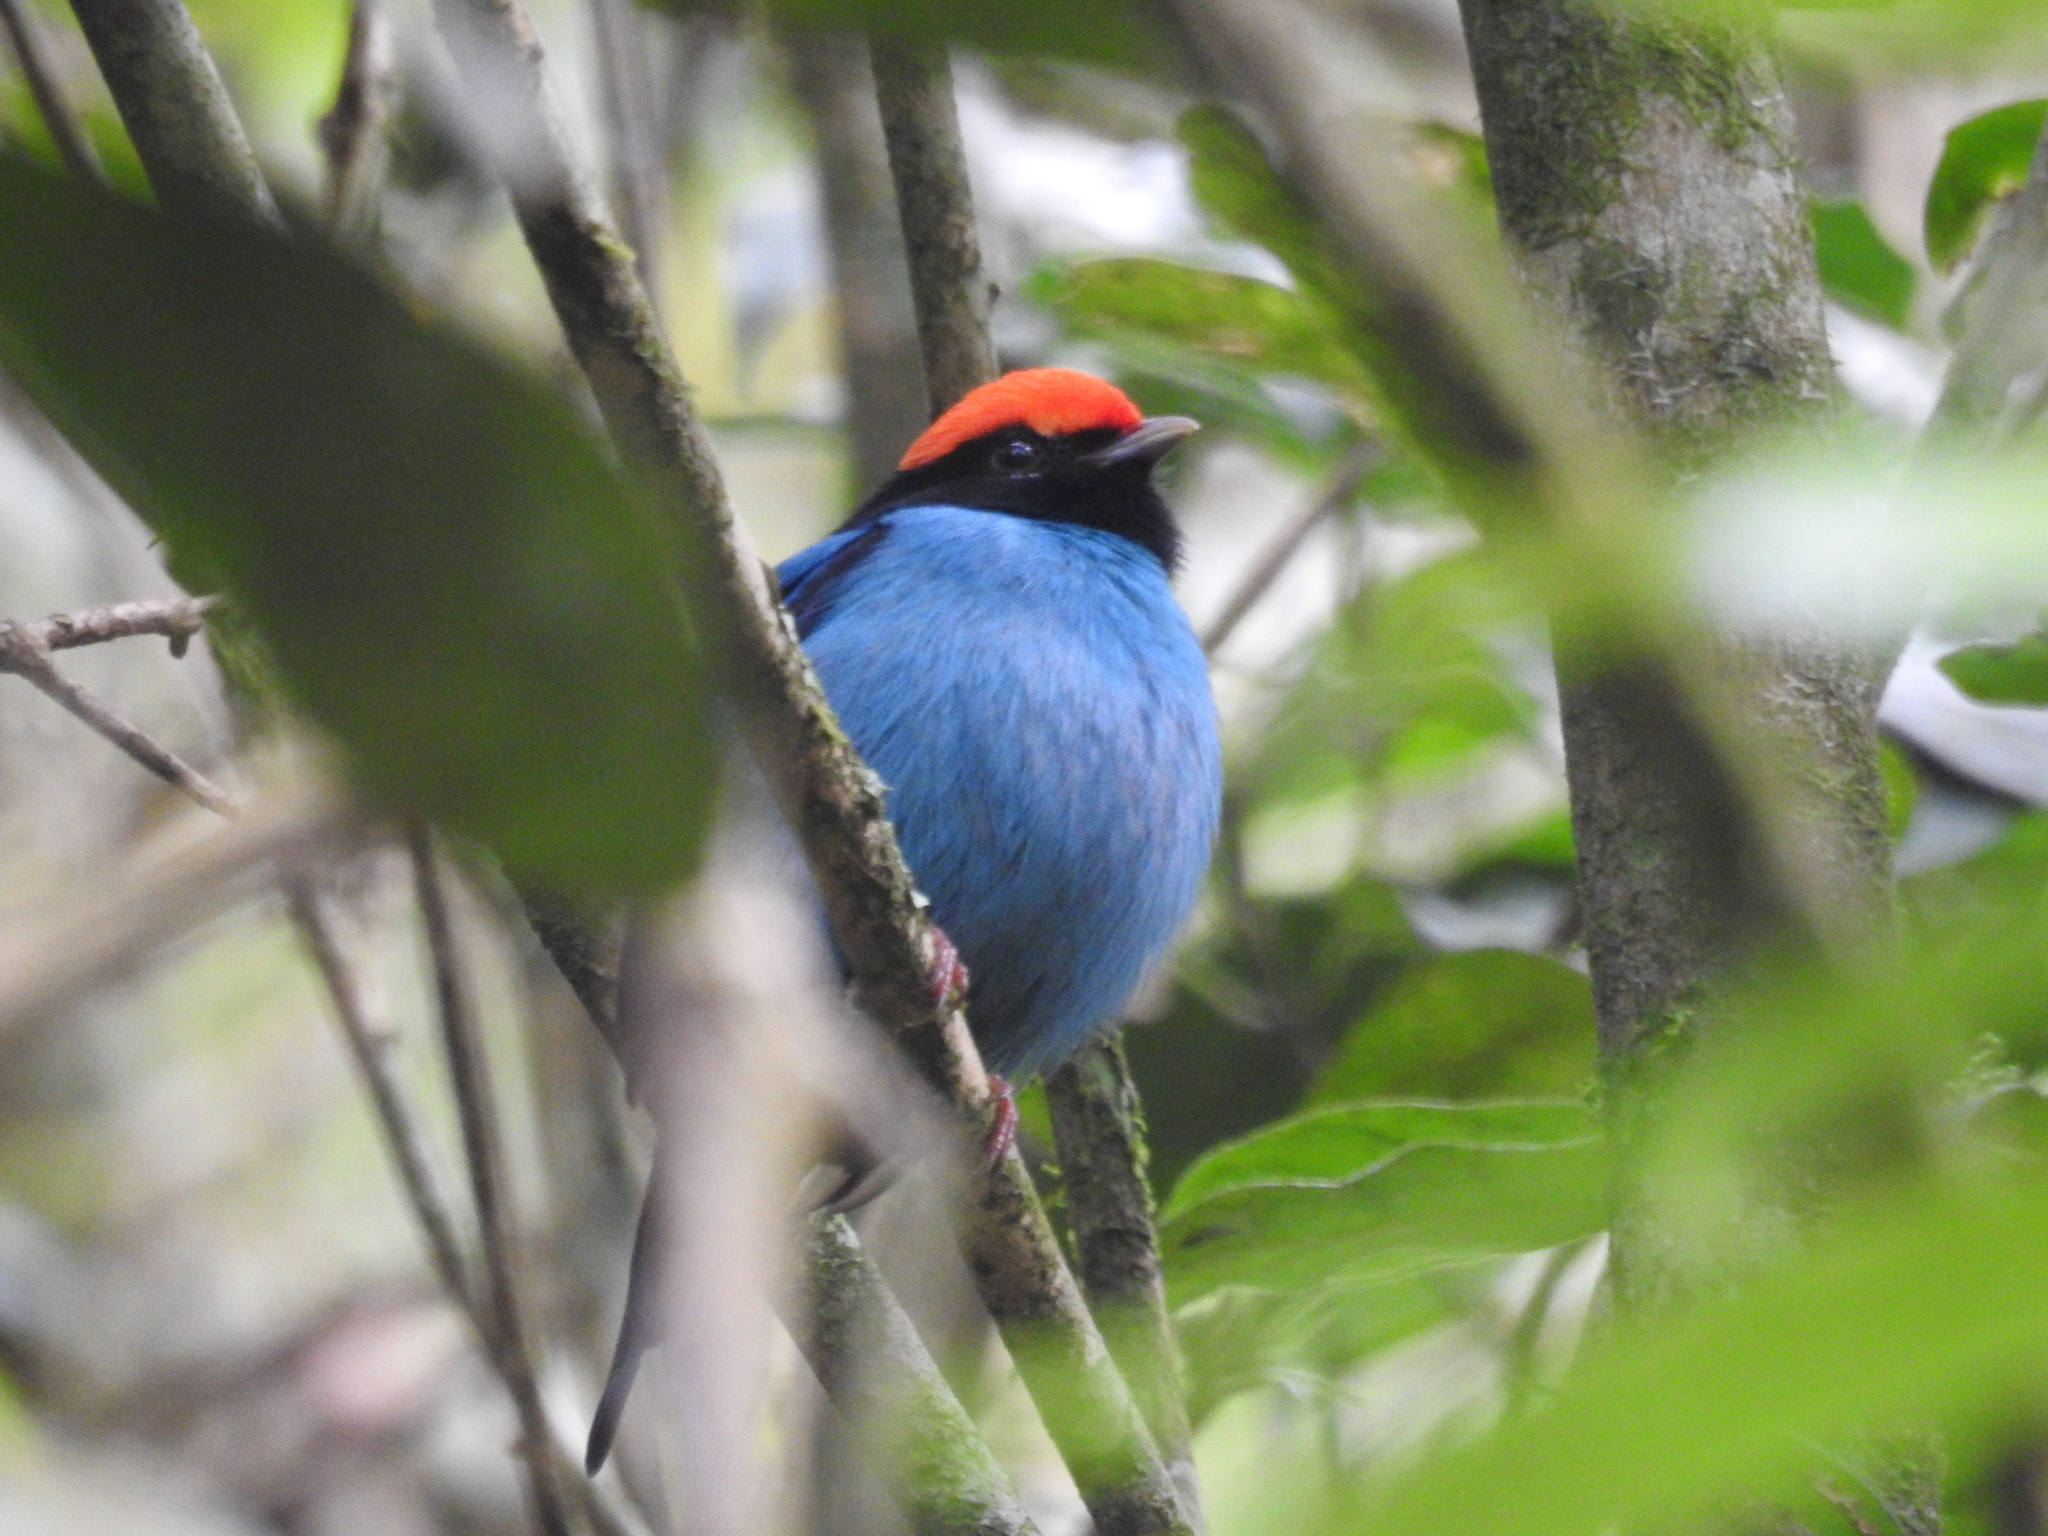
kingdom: Animalia
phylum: Chordata
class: Aves
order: Passeriformes
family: Pipridae
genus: Chiroxiphia
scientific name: Chiroxiphia caudata
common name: Blue manakin
